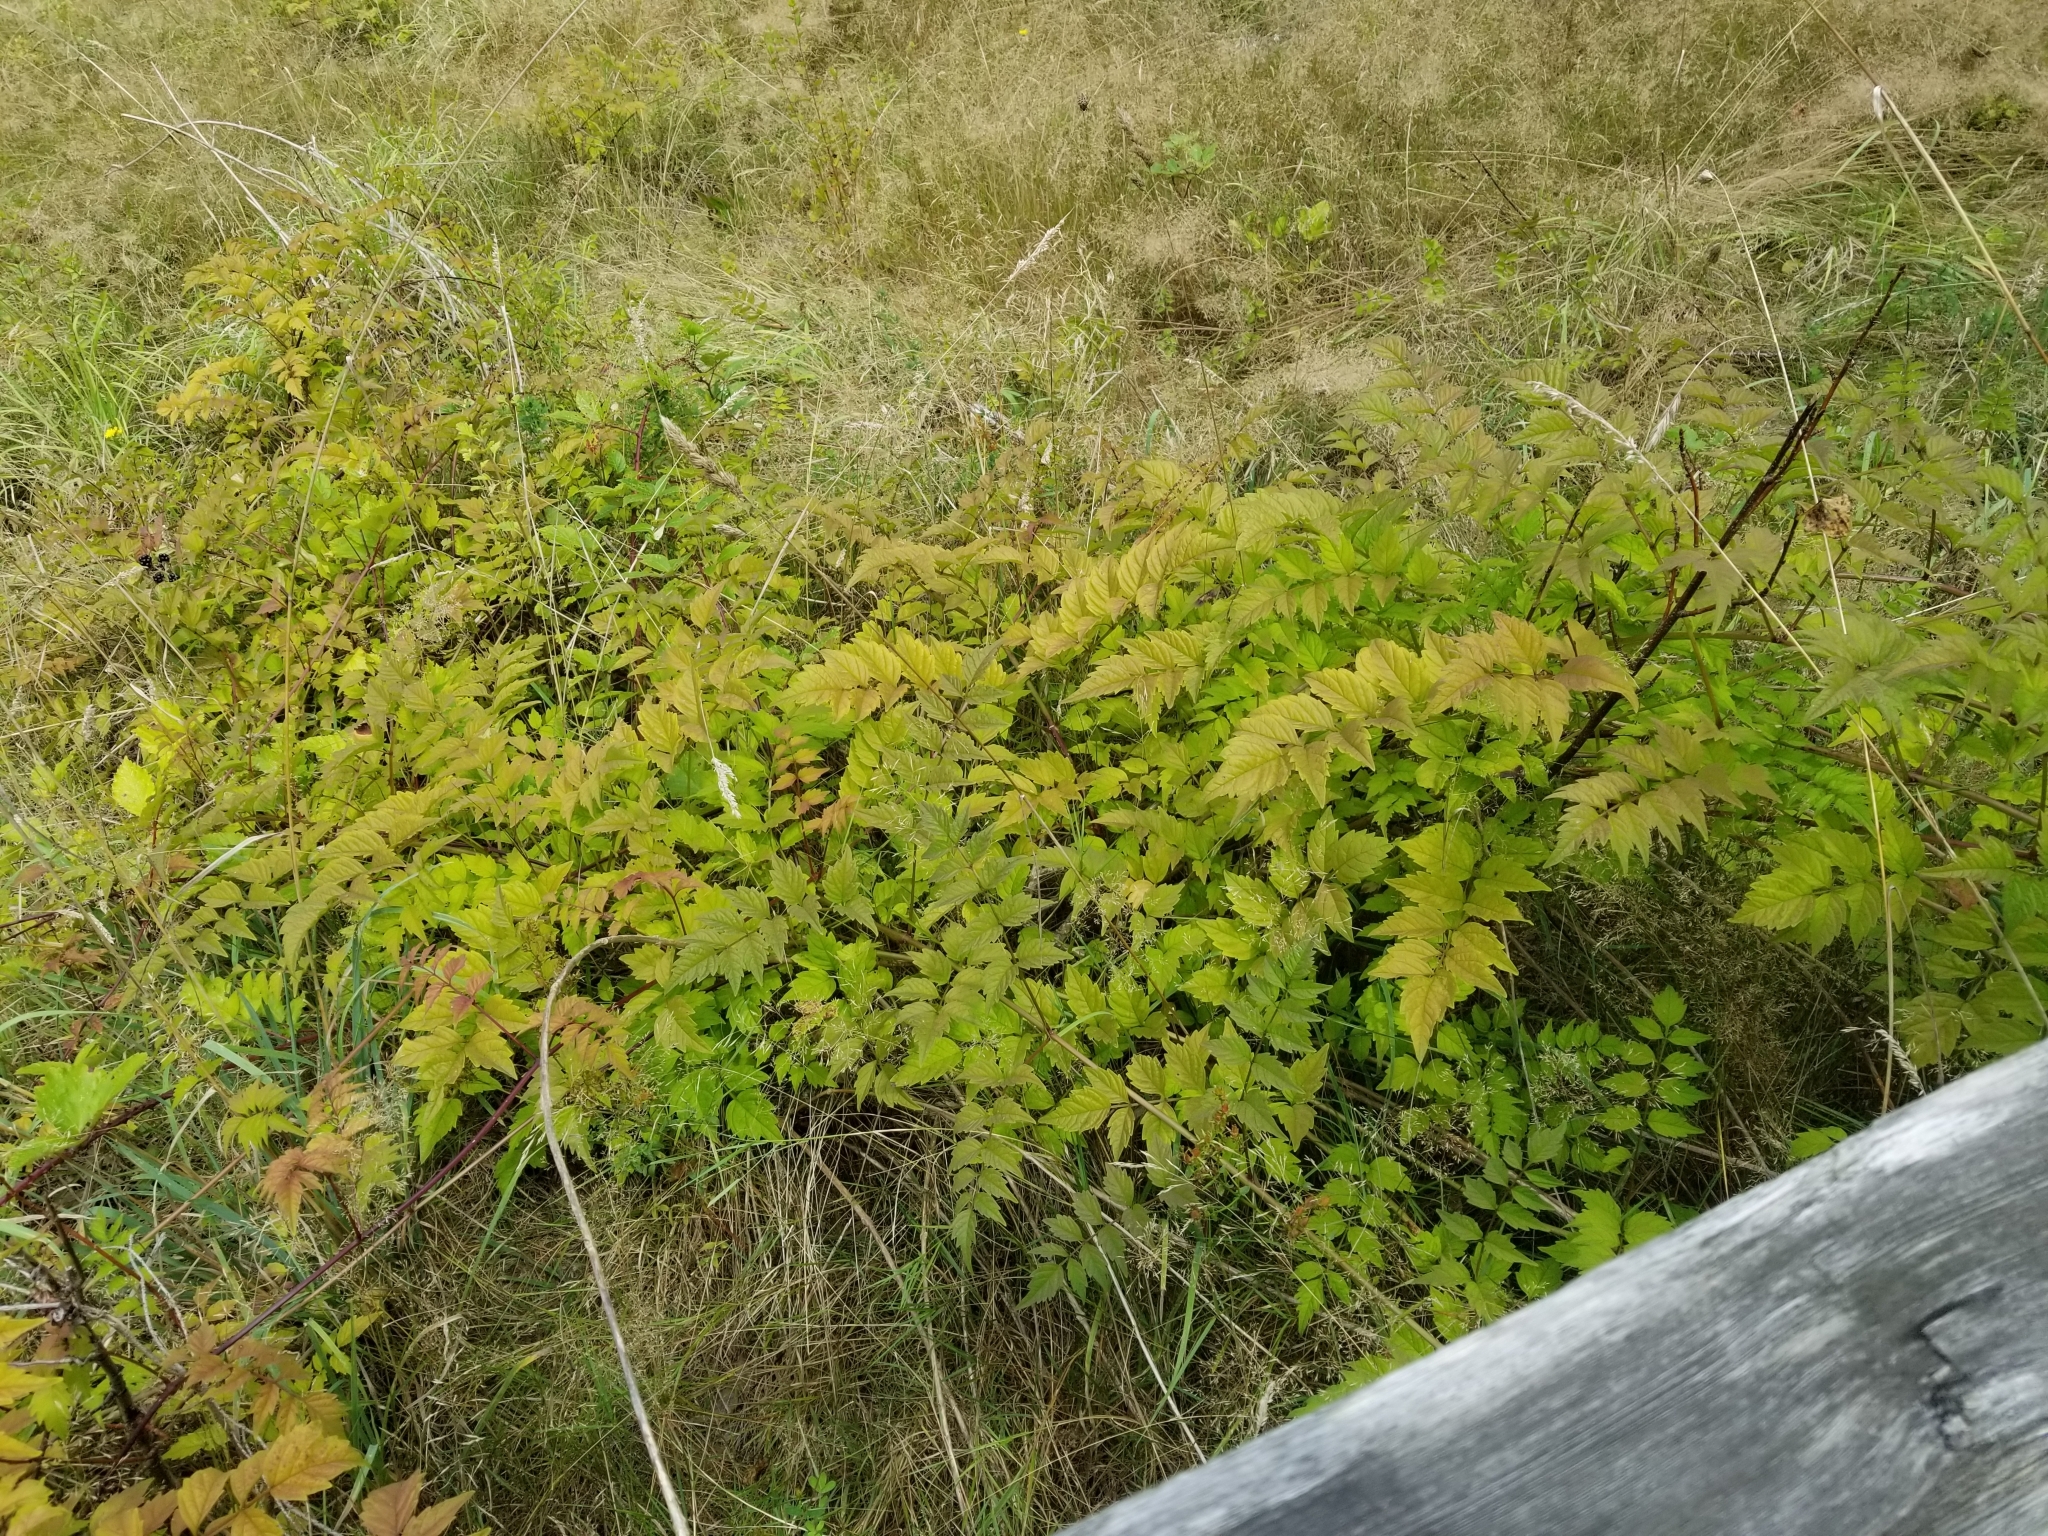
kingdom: Plantae
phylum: Tracheophyta
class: Magnoliopsida
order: Lamiales
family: Bignoniaceae
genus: Campsis
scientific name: Campsis radicans
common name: Trumpet-creeper
